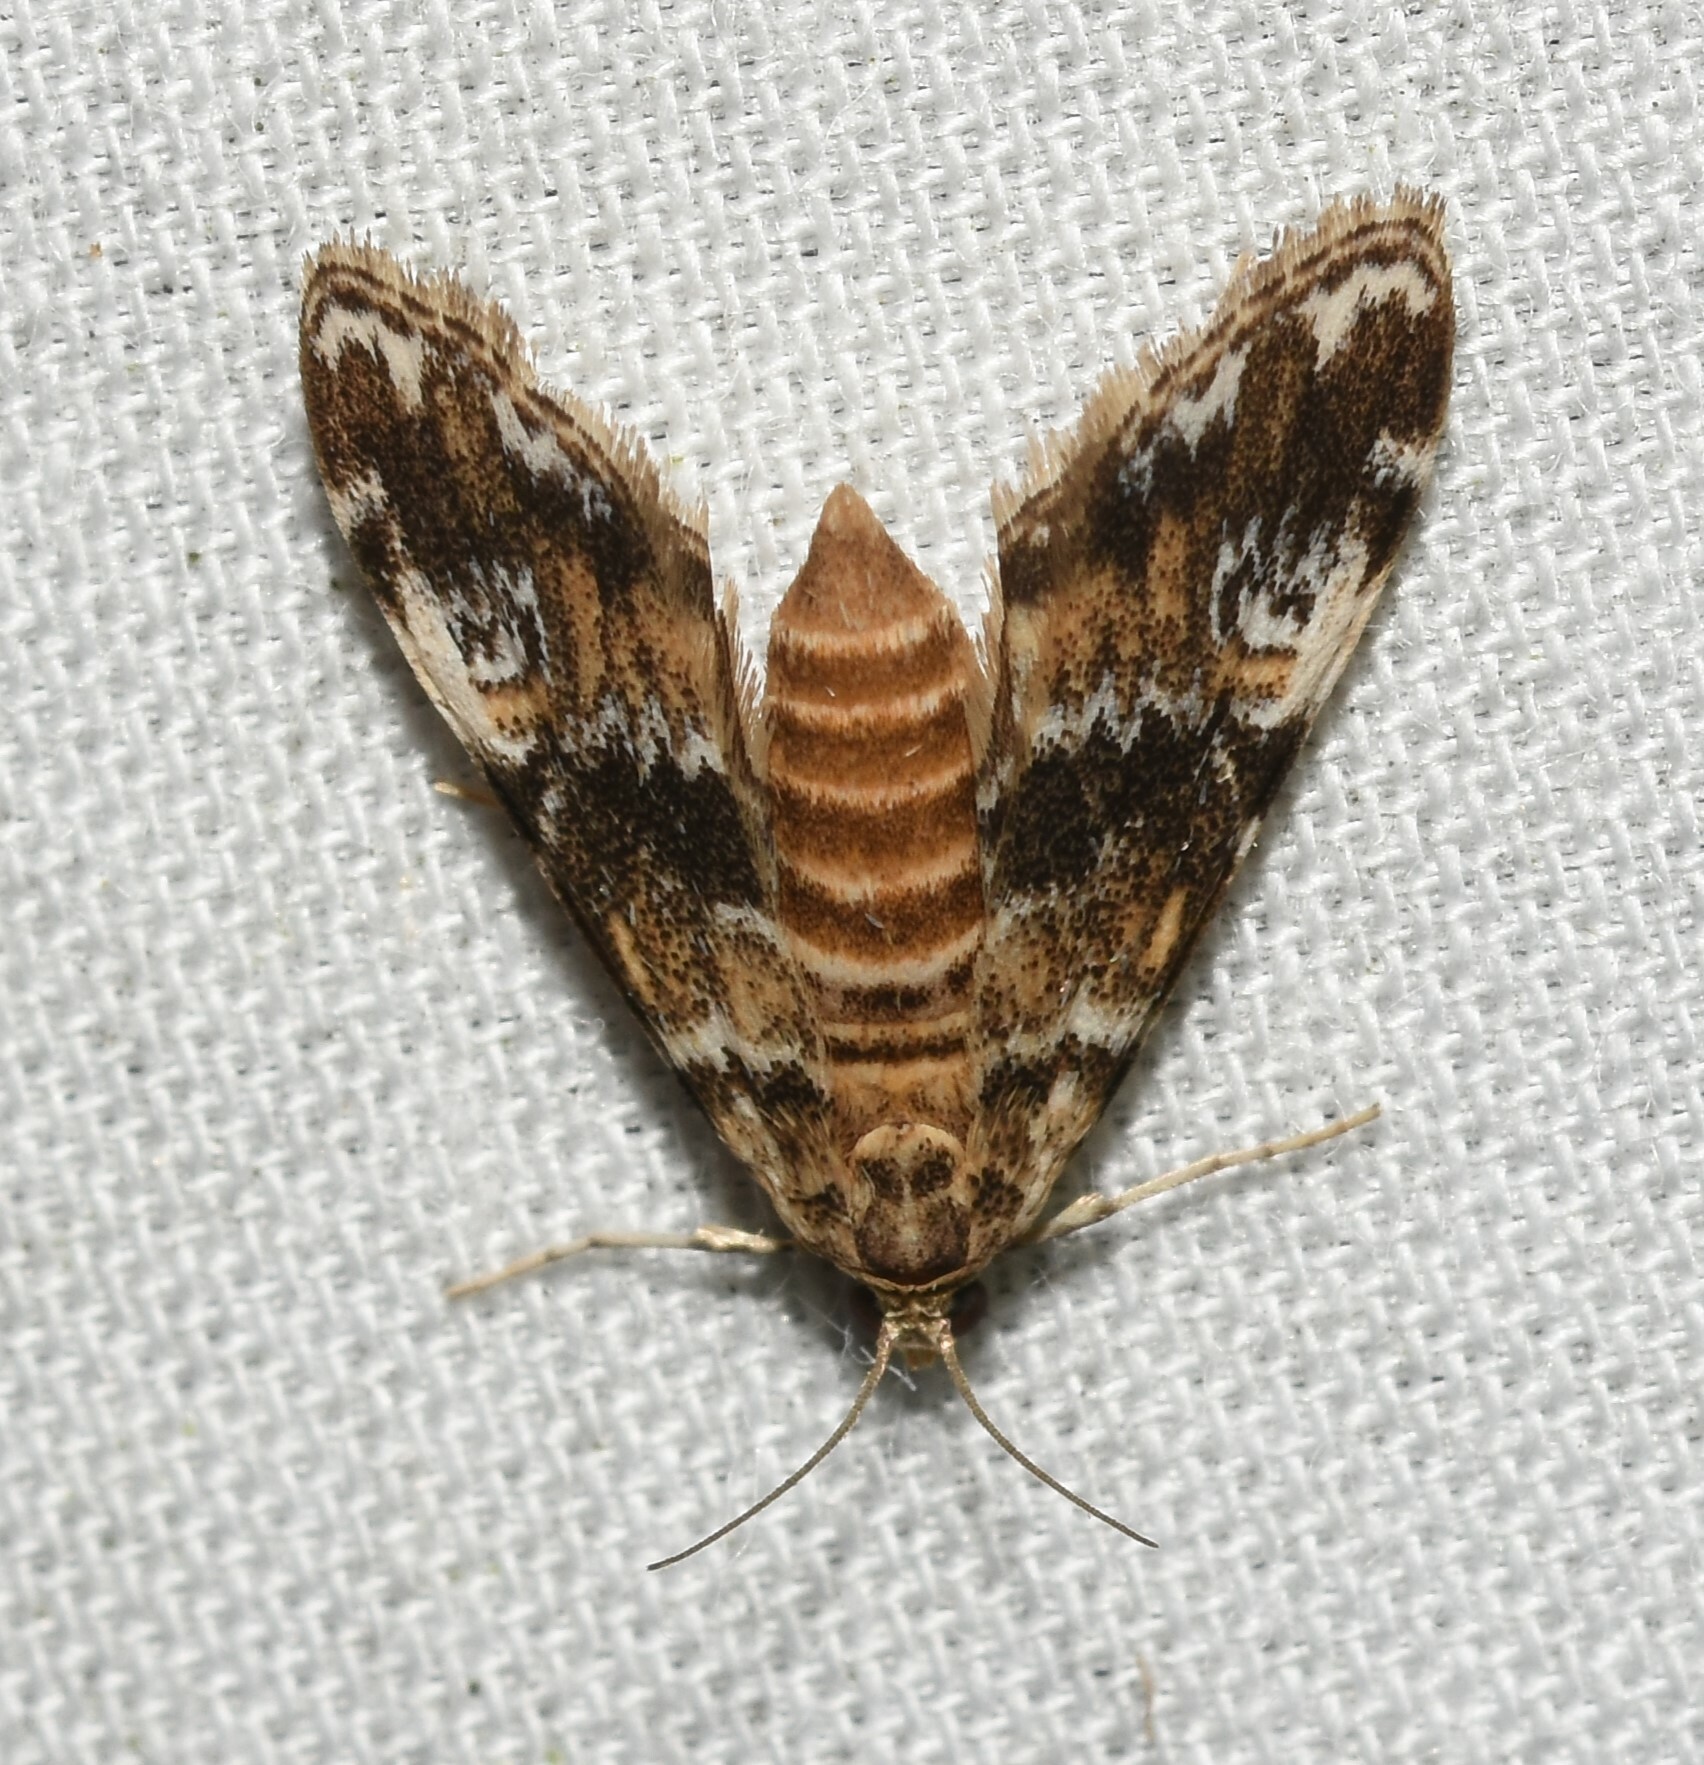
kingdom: Animalia
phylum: Arthropoda
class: Insecta
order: Lepidoptera
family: Crambidae
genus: Elophila
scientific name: Elophila obliteralis
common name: Waterlily leafcutter moth
